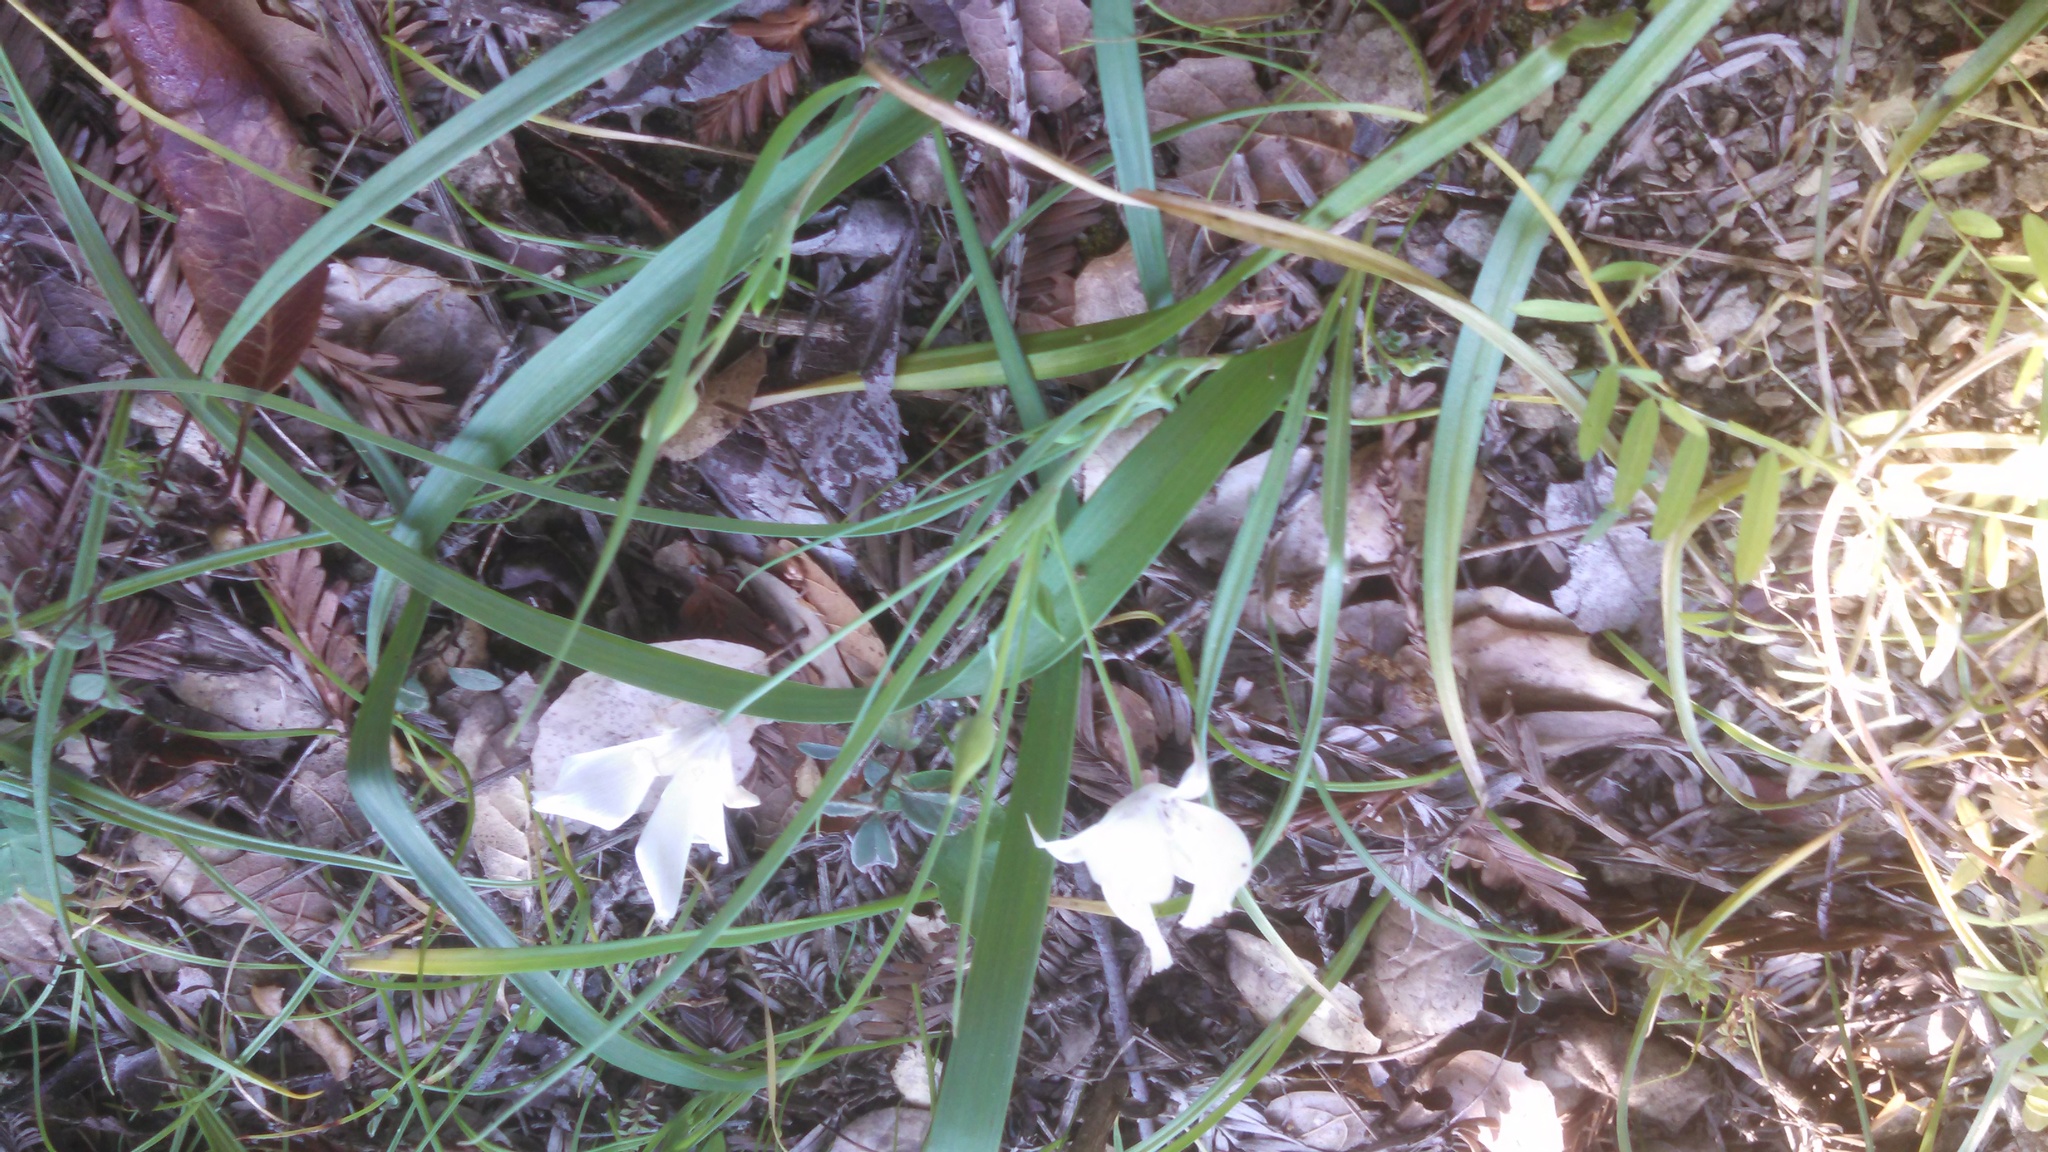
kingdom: Plantae
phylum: Tracheophyta
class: Liliopsida
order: Liliales
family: Liliaceae
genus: Calochortus
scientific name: Calochortus umbellatus
